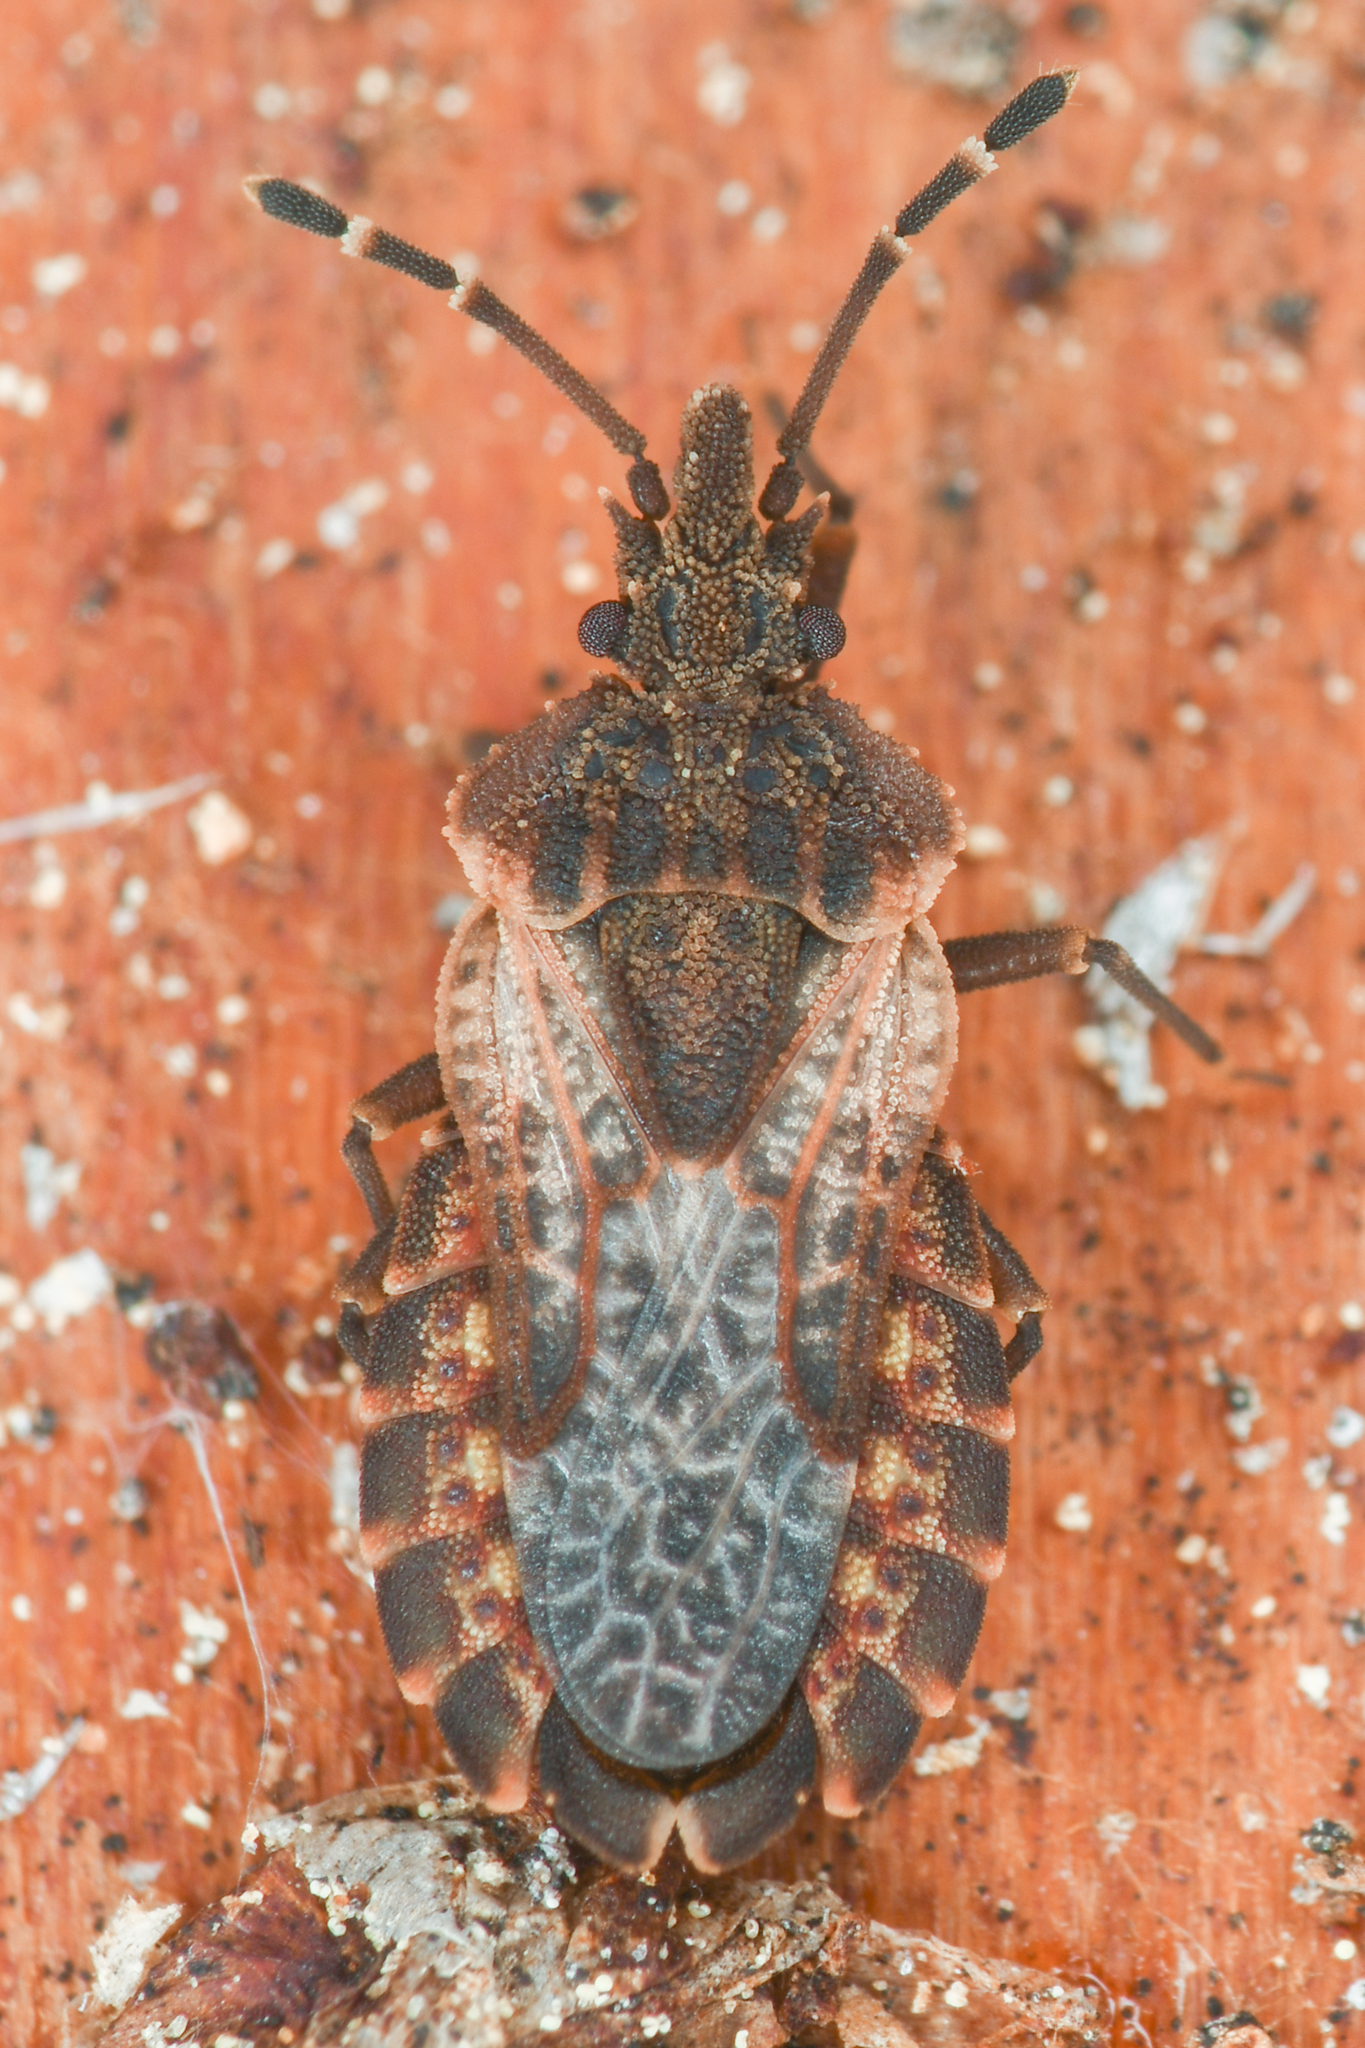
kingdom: Animalia
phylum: Arthropoda
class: Insecta
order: Hemiptera
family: Aradidae
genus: Aradus
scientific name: Aradus proboscideus
